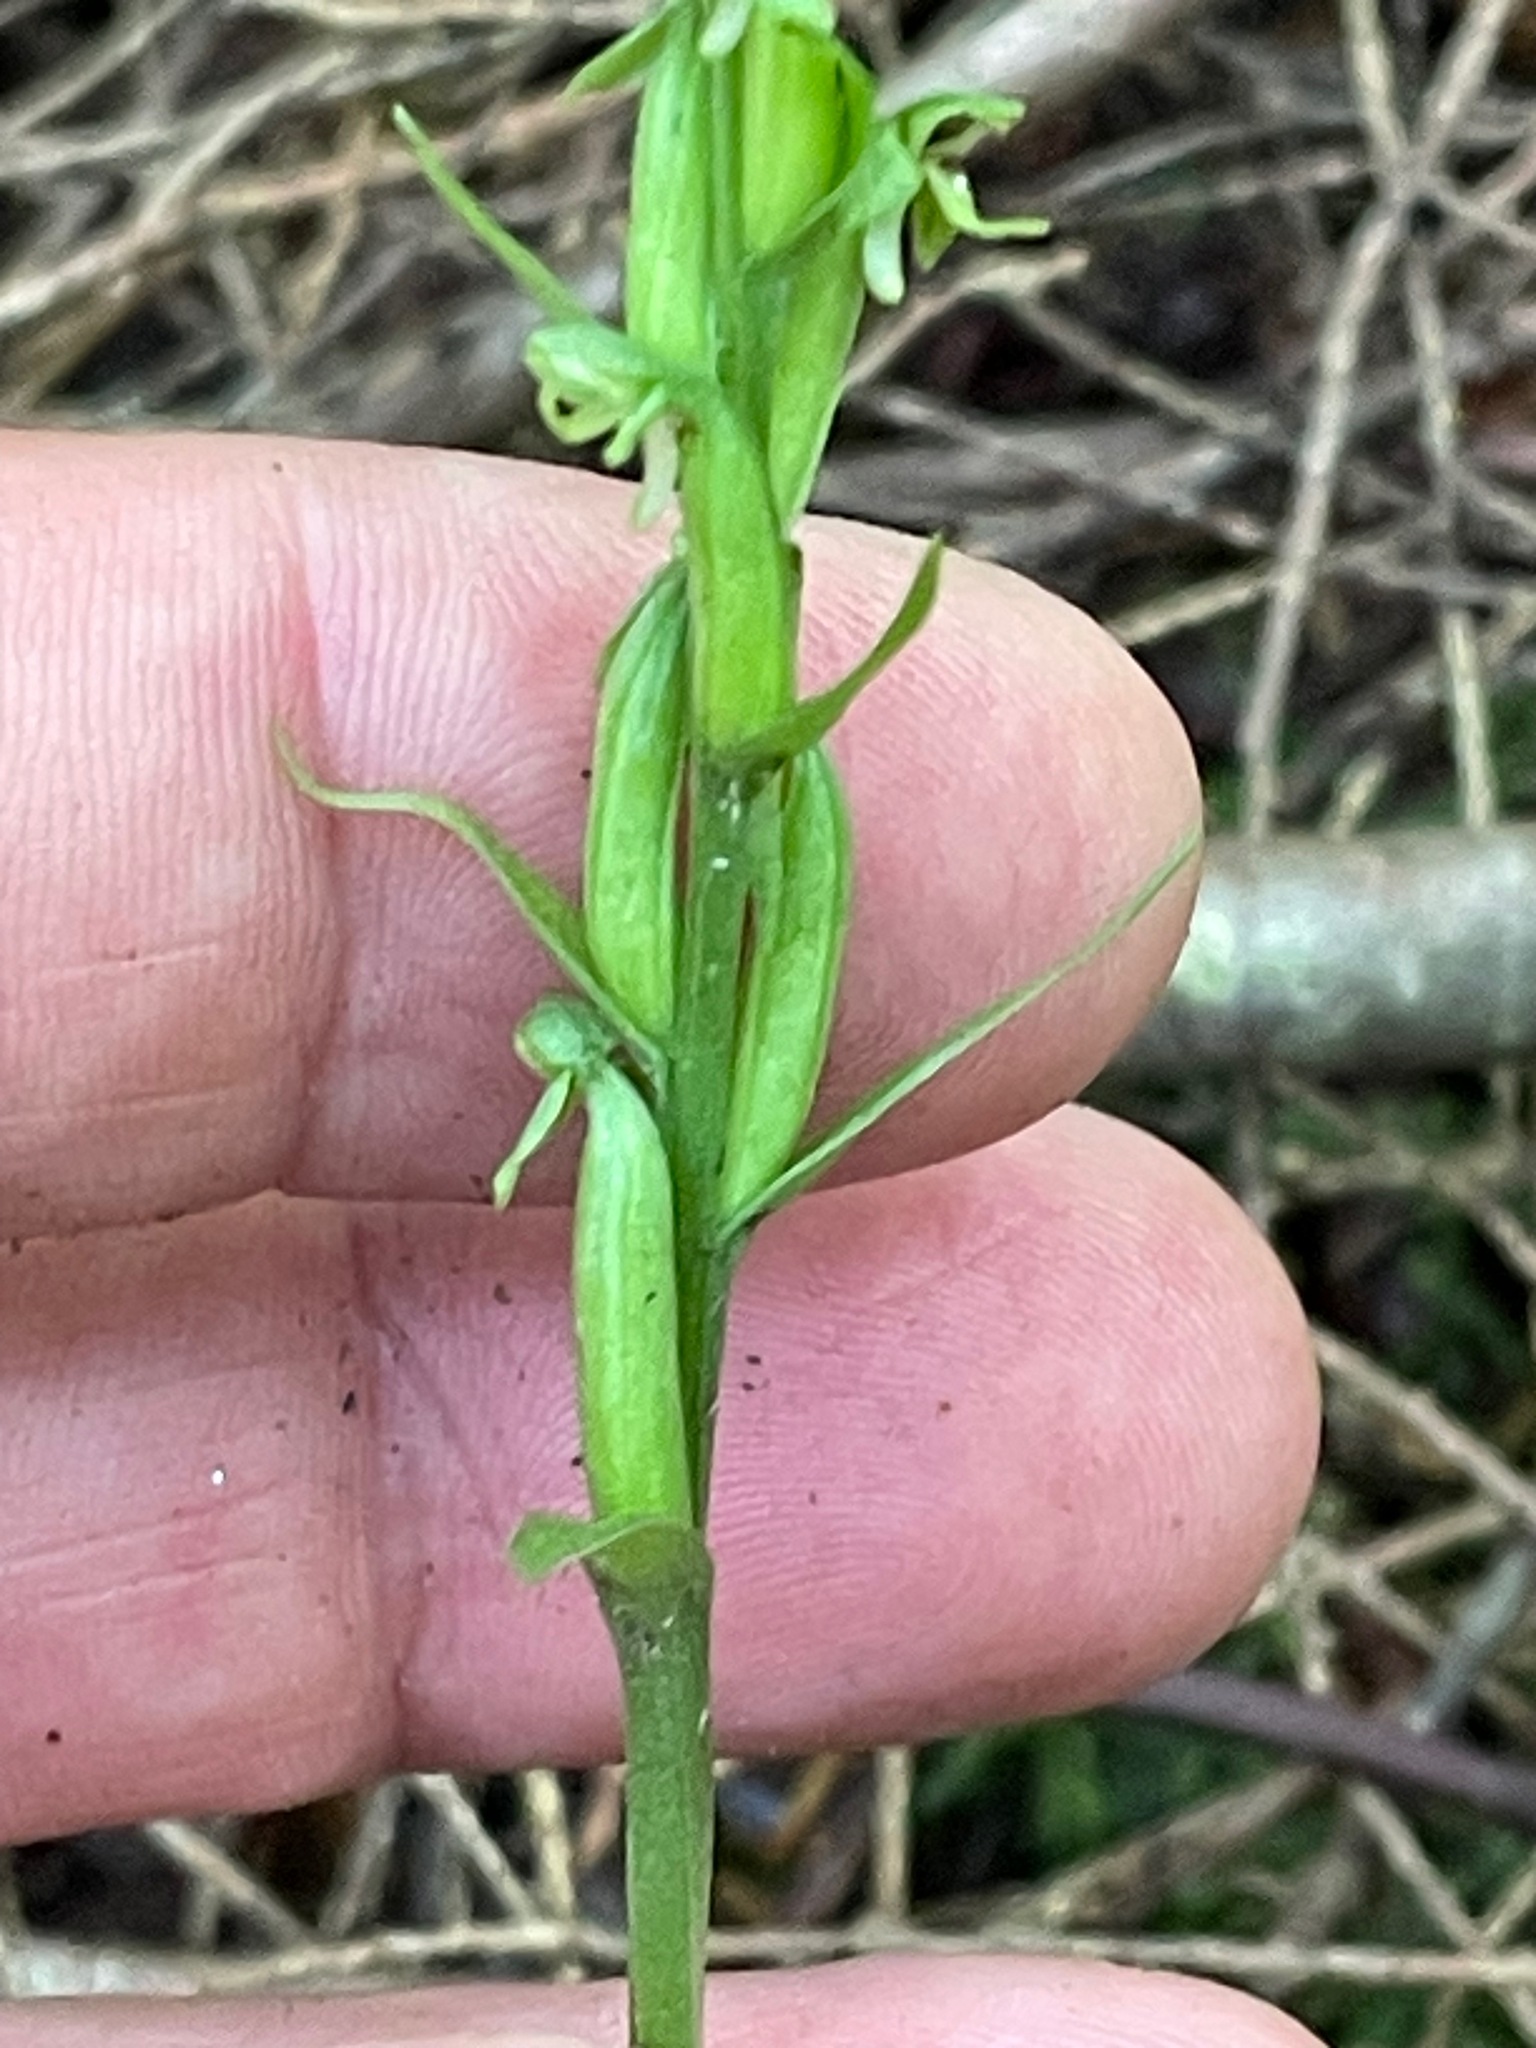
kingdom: Plantae
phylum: Tracheophyta
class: Liliopsida
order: Asparagales
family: Orchidaceae
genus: Platanthera
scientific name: Platanthera aquilonis
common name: Northern green orchid
